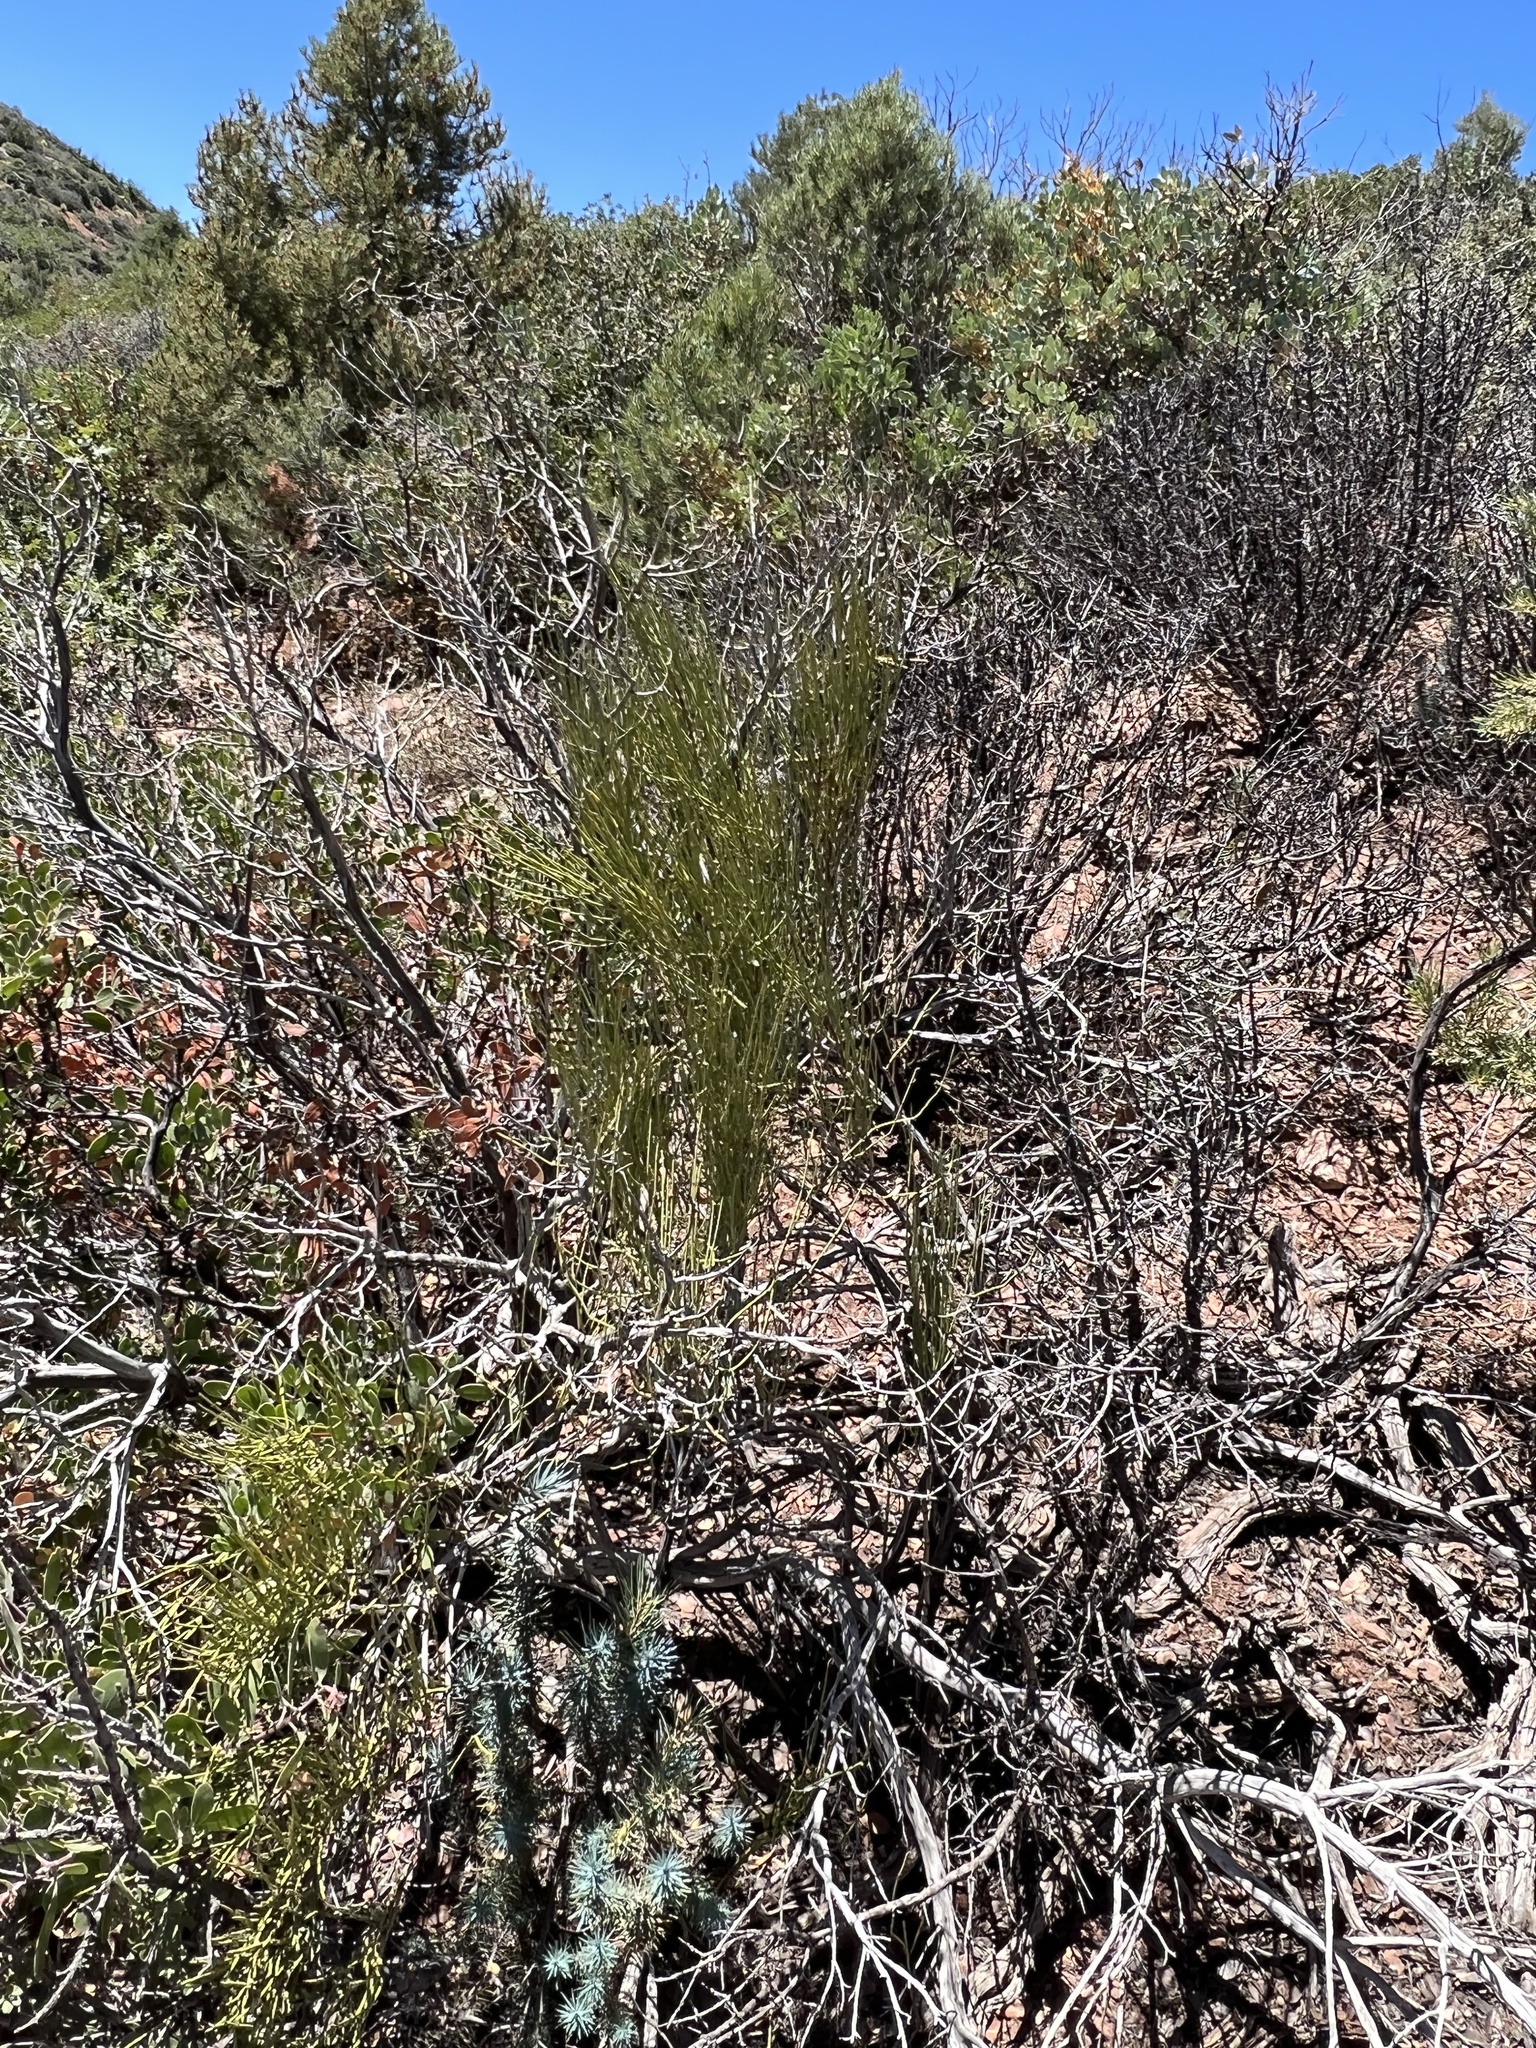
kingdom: Plantae
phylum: Tracheophyta
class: Gnetopsida
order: Ephedrales
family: Ephedraceae
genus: Ephedra
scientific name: Ephedra viridis
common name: Green ephedra
